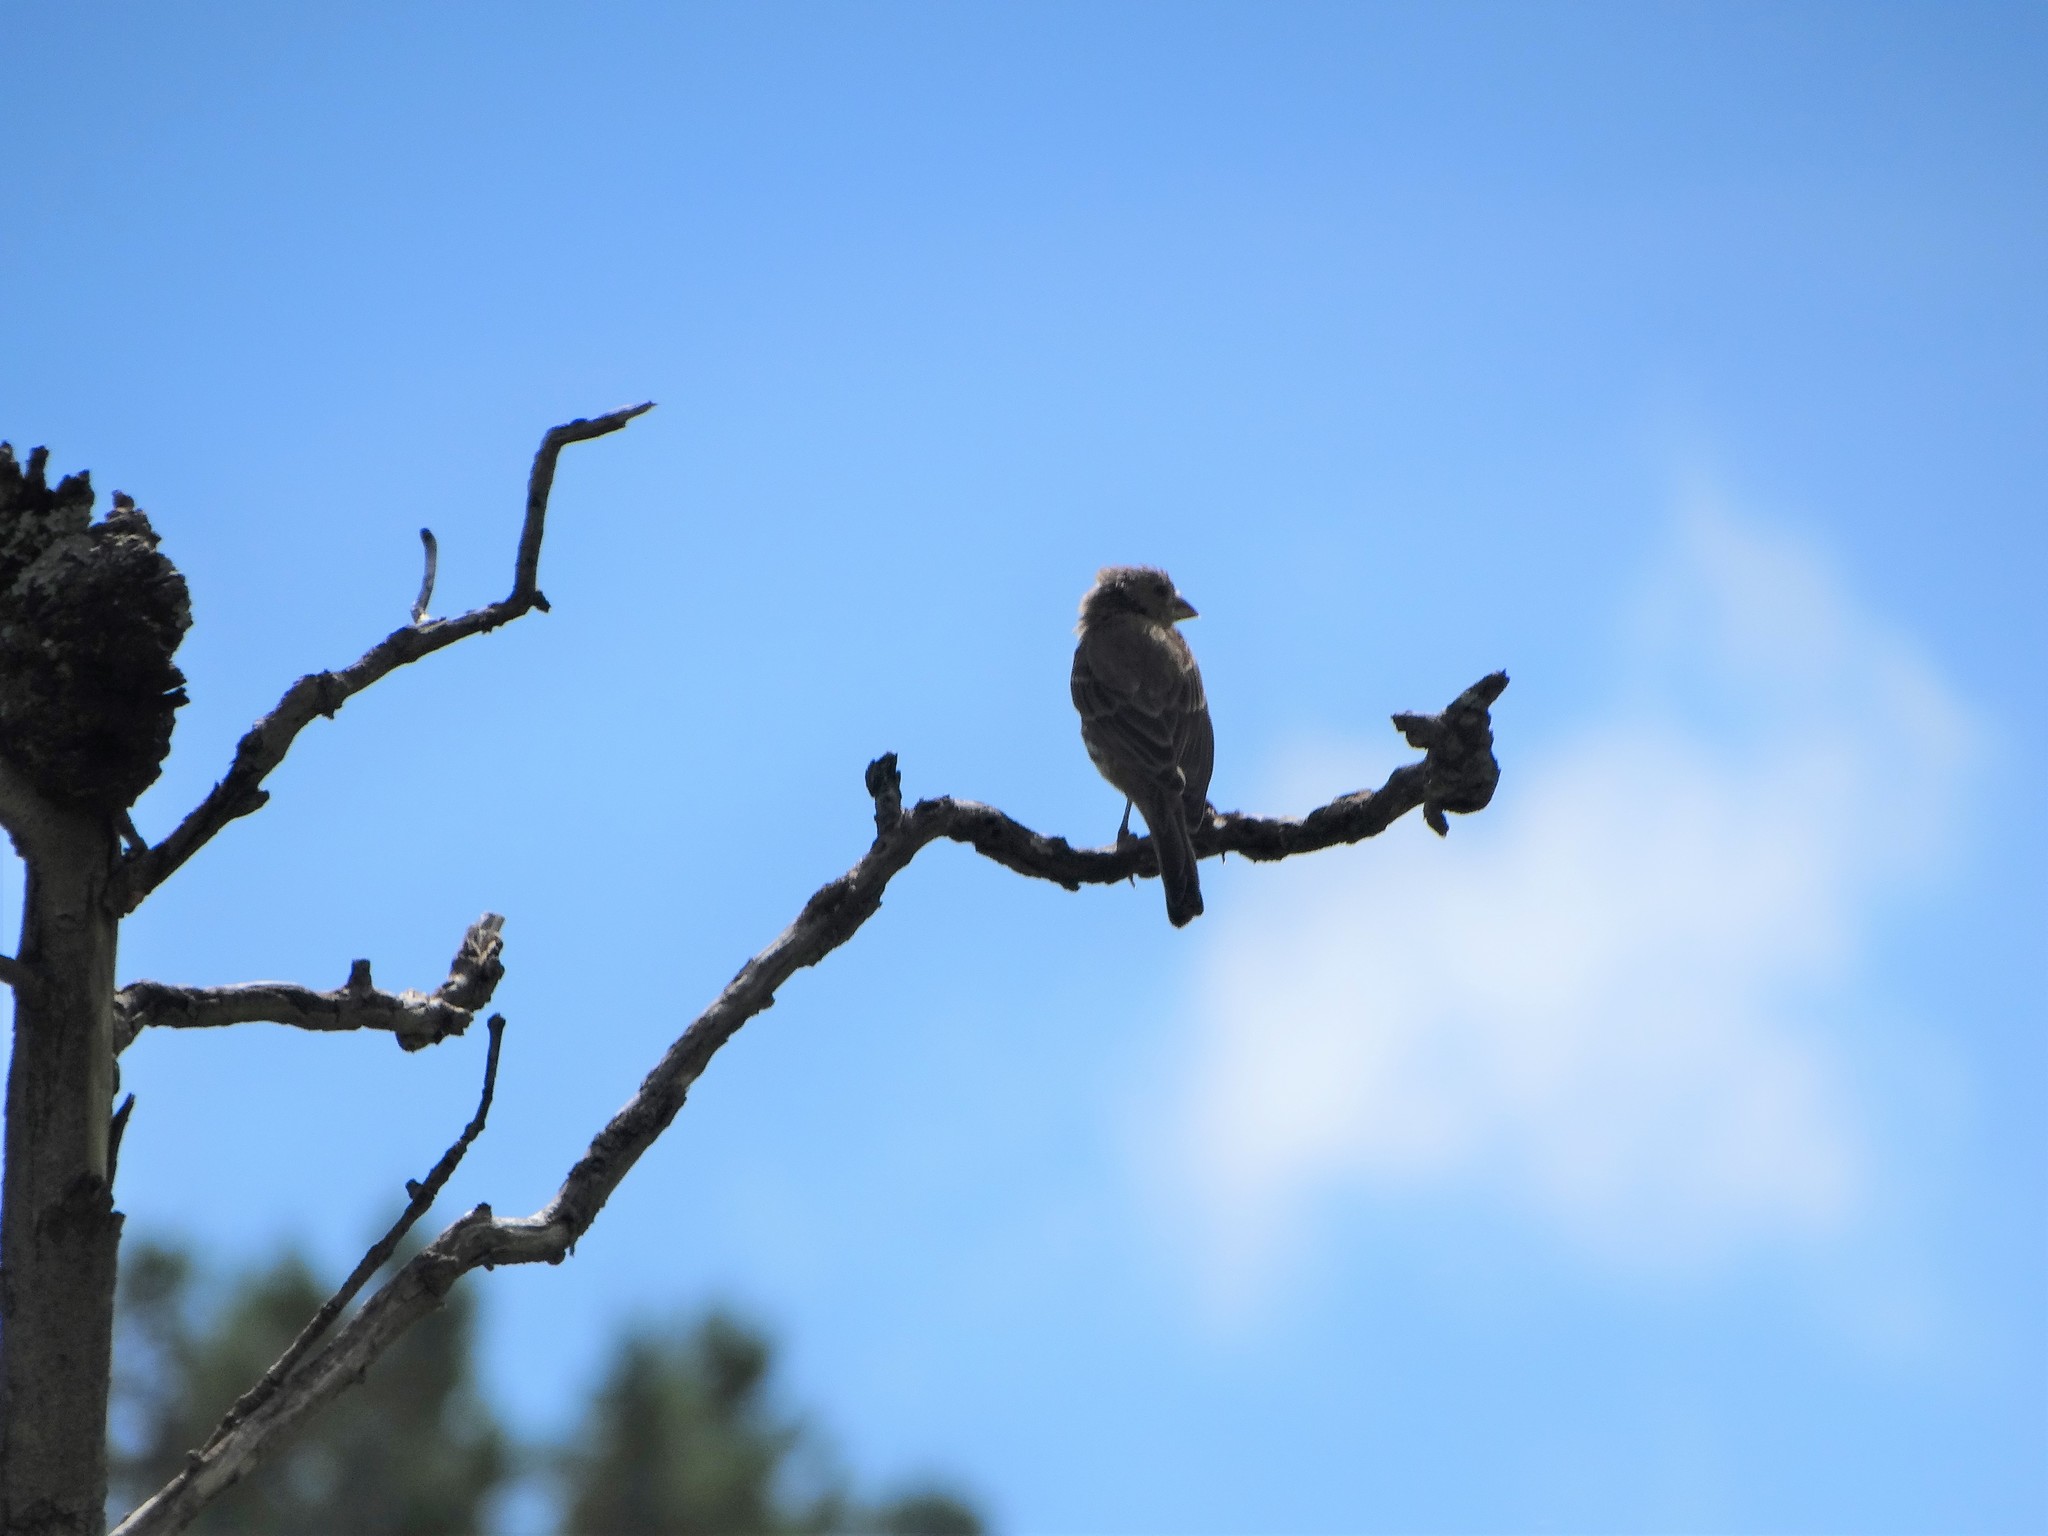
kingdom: Animalia
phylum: Chordata
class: Aves
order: Passeriformes
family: Fringillidae
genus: Haemorhous
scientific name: Haemorhous mexicanus
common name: House finch
